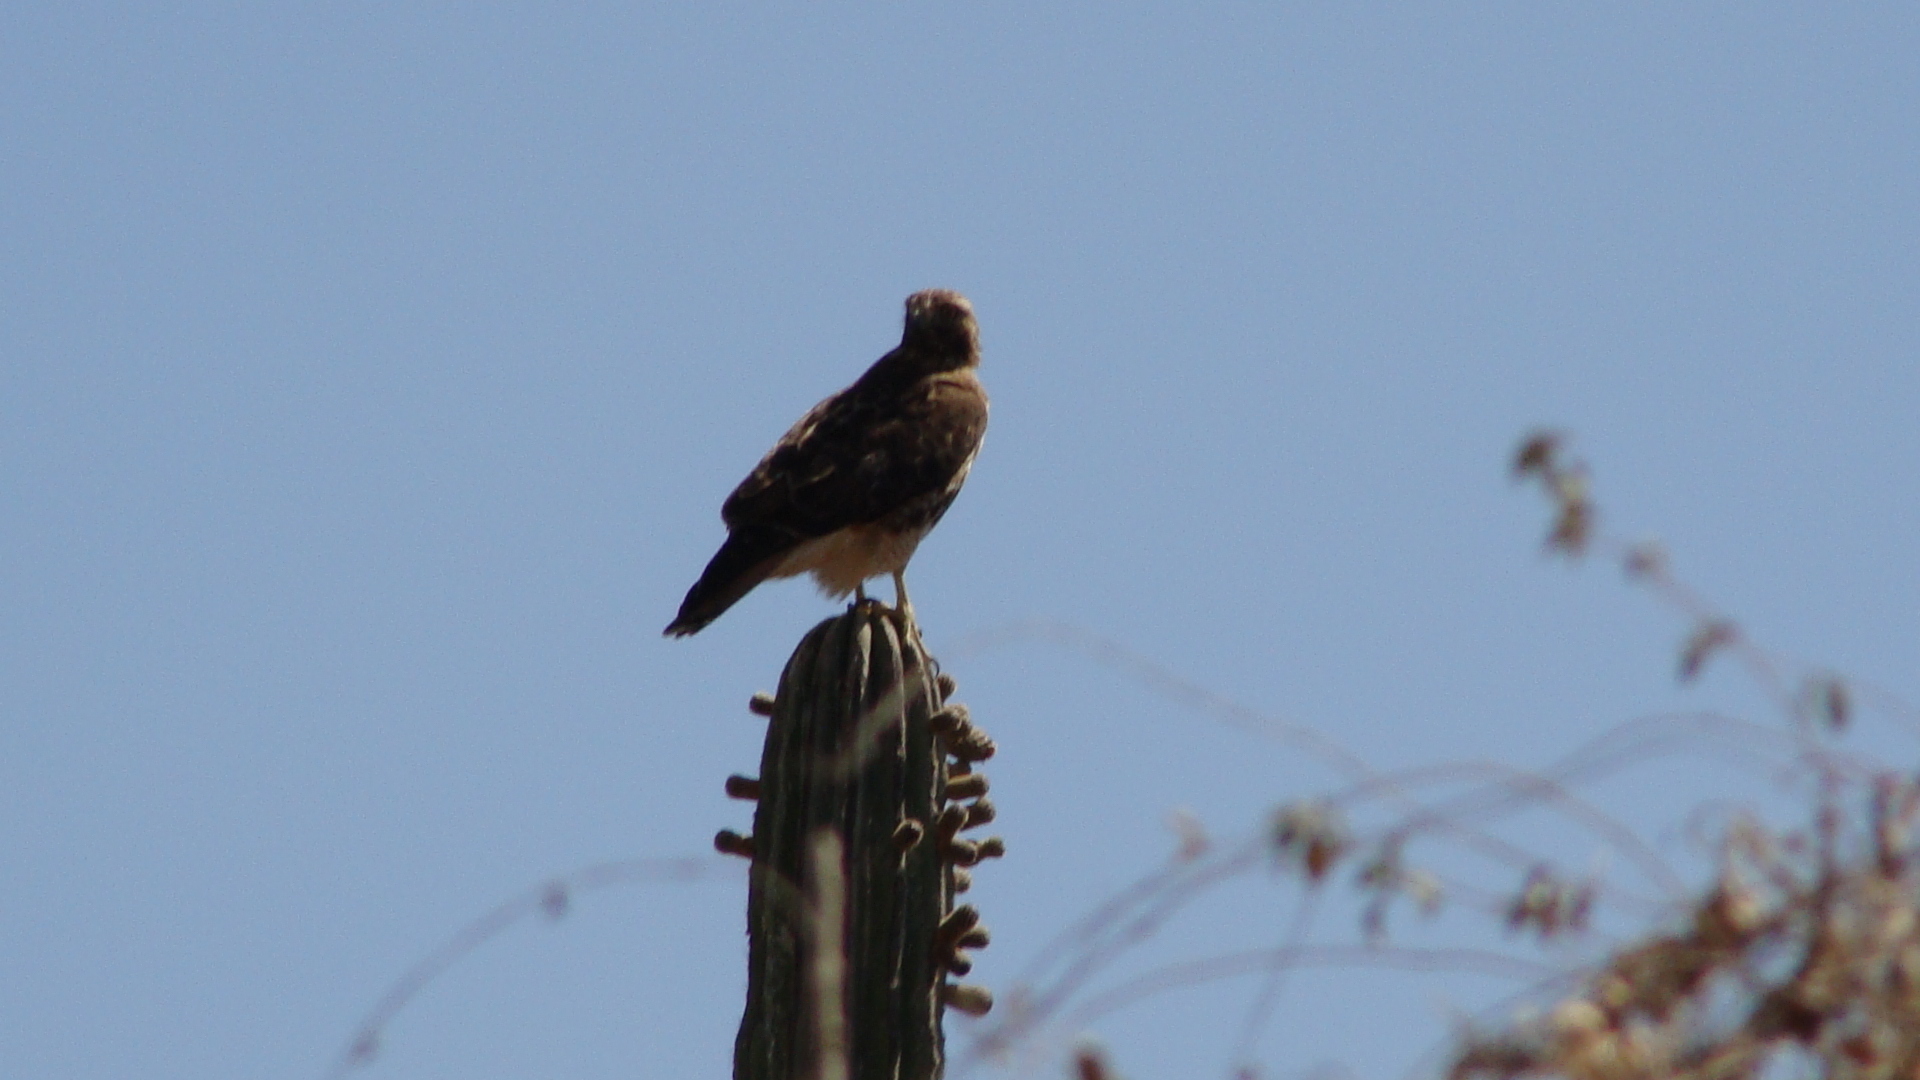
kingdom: Animalia
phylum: Chordata
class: Aves
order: Accipitriformes
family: Accipitridae
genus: Buteo
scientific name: Buteo jamaicensis
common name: Red-tailed hawk
